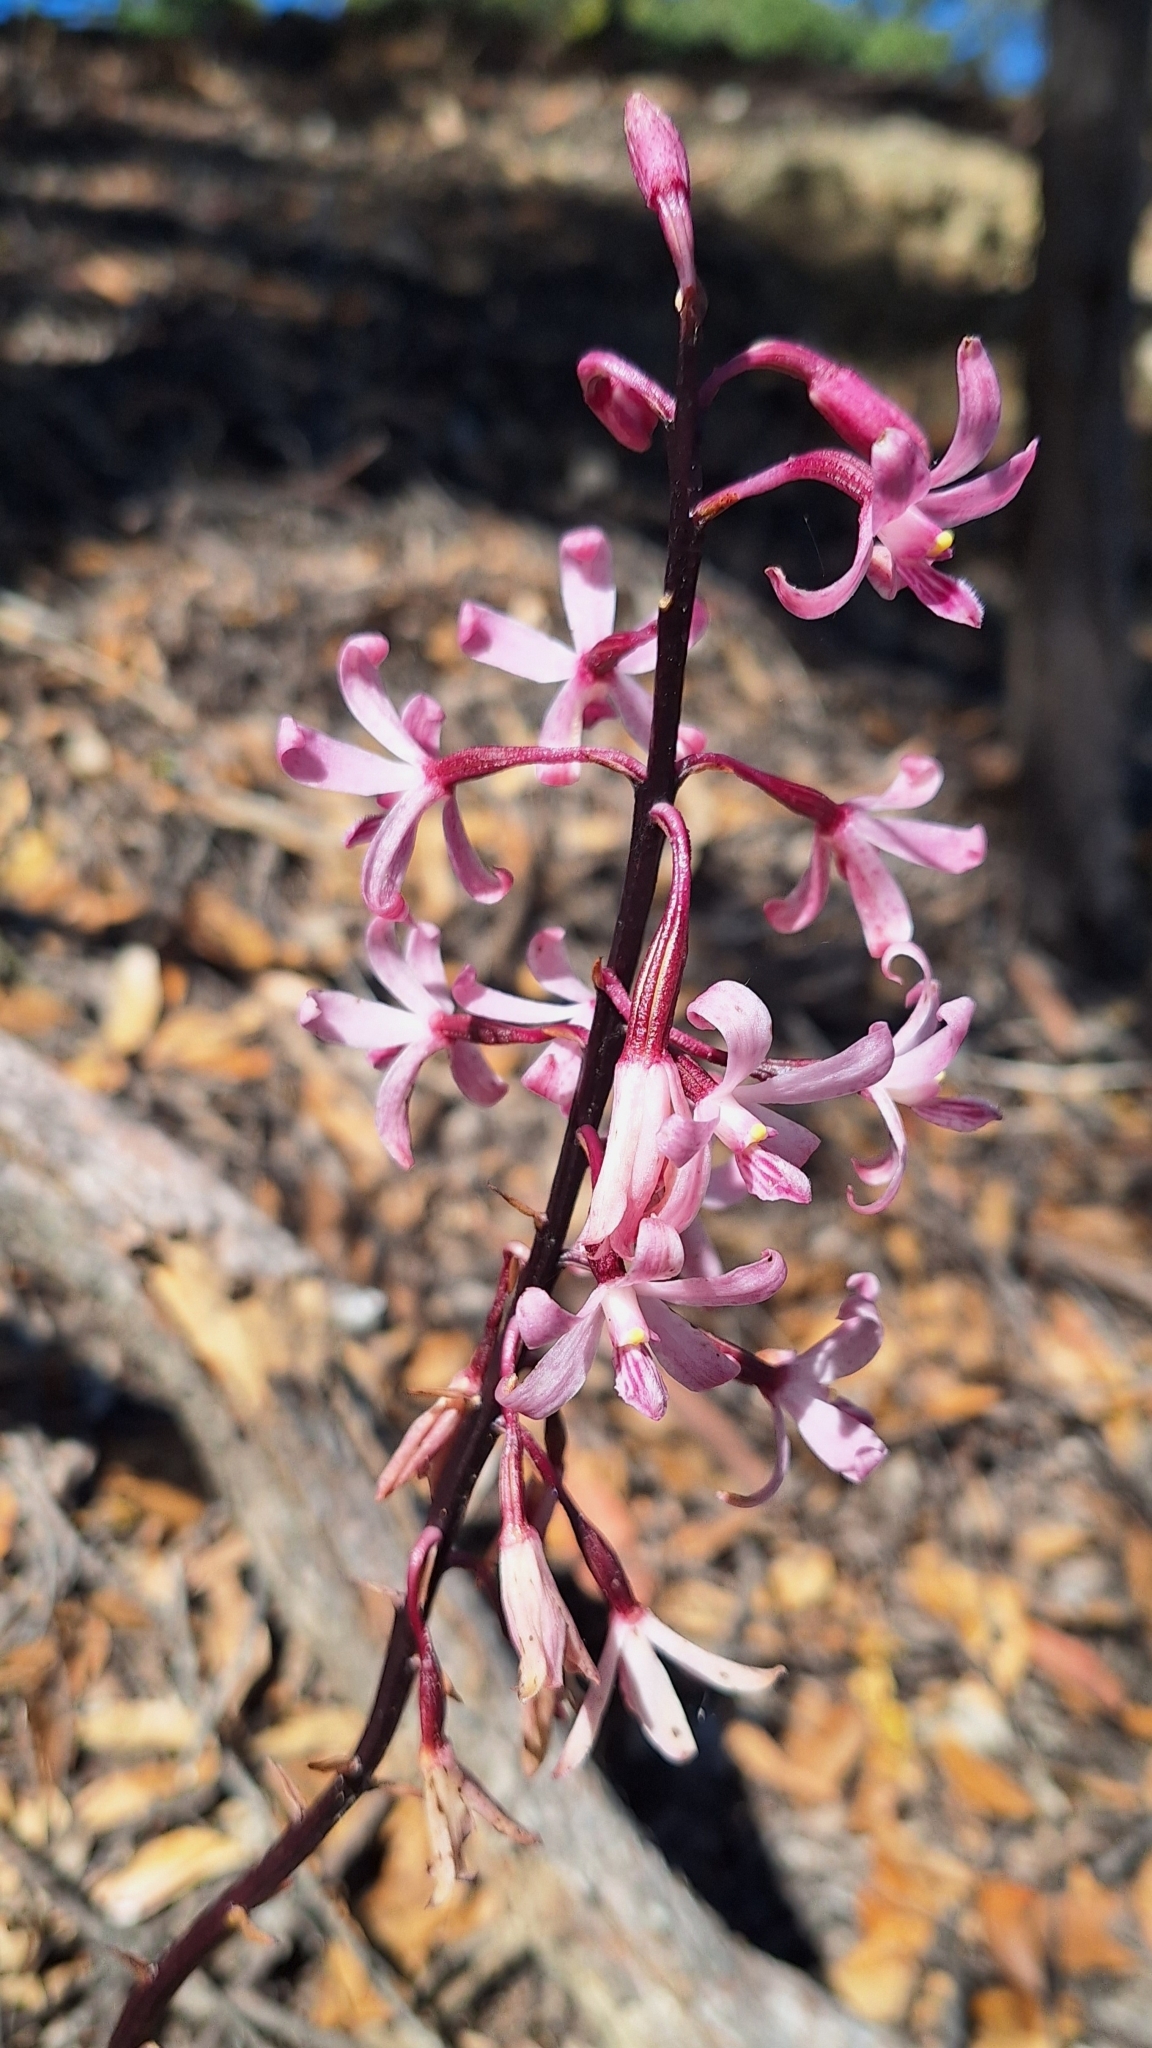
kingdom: Plantae
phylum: Tracheophyta
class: Liliopsida
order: Asparagales
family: Orchidaceae
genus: Dipodium
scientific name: Dipodium roseum
